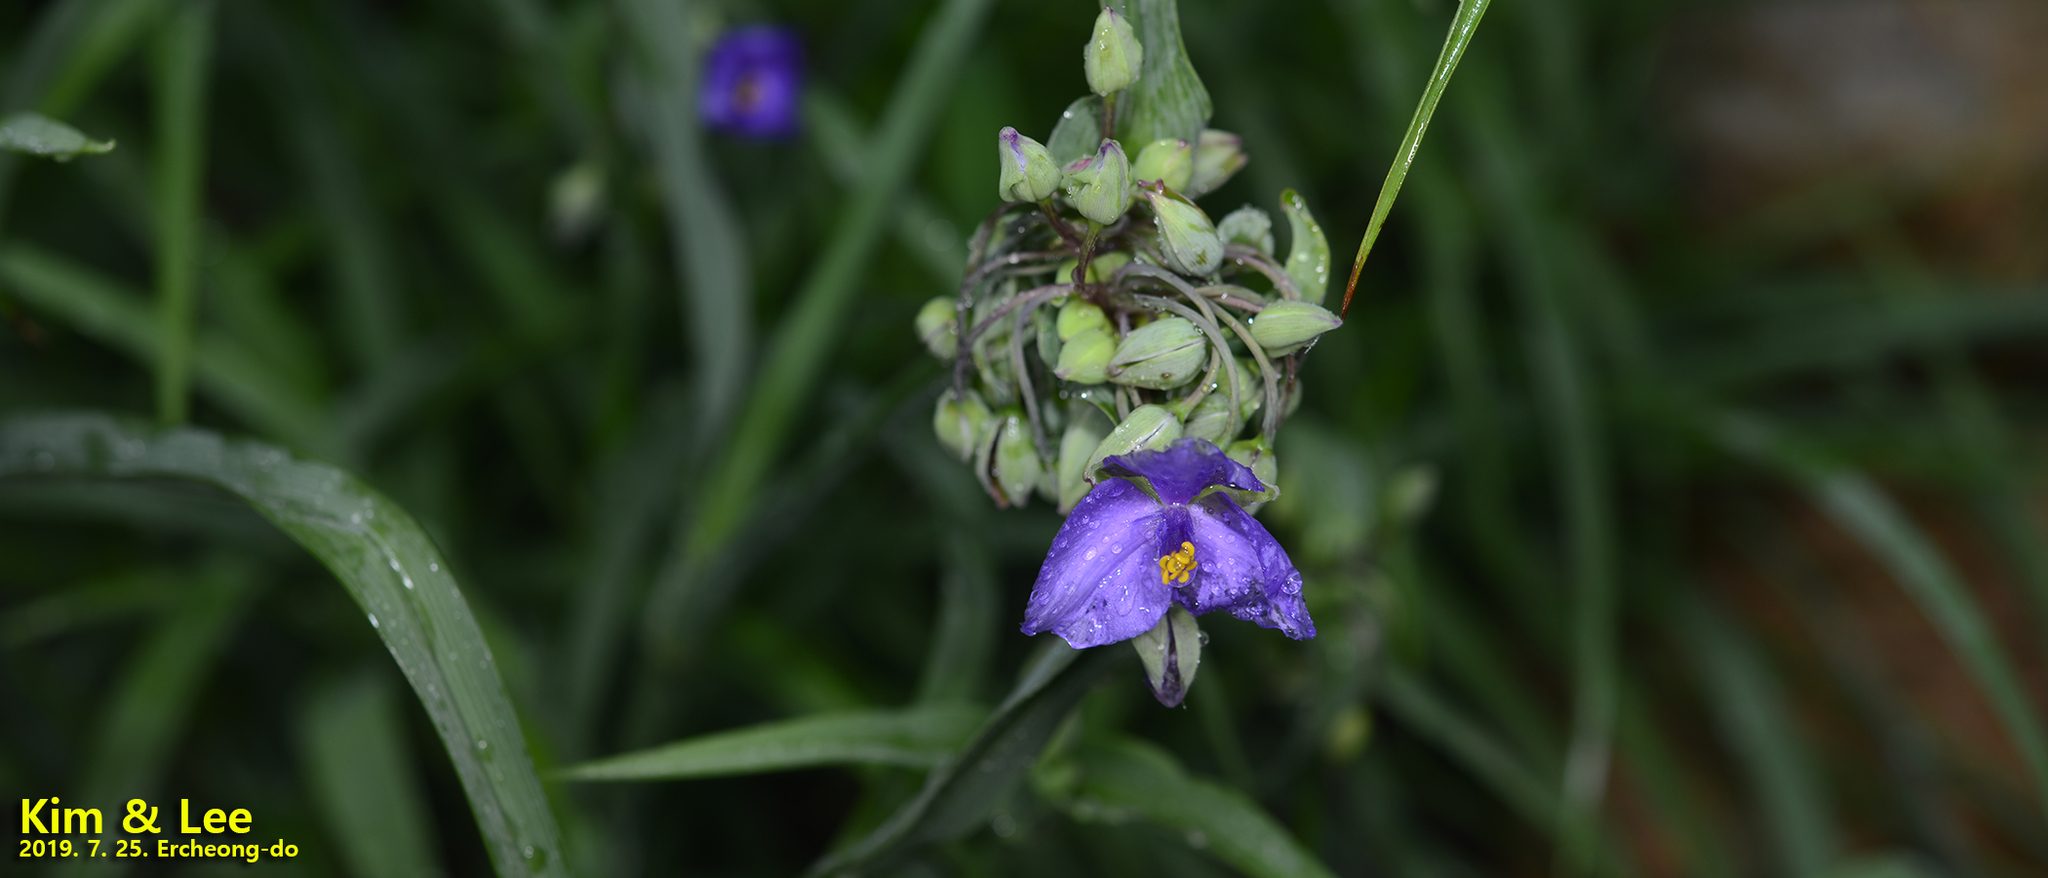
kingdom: Plantae
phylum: Tracheophyta
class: Liliopsida
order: Commelinales
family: Commelinaceae
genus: Tradescantia
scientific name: Tradescantia virginiana
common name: Spiderwort
